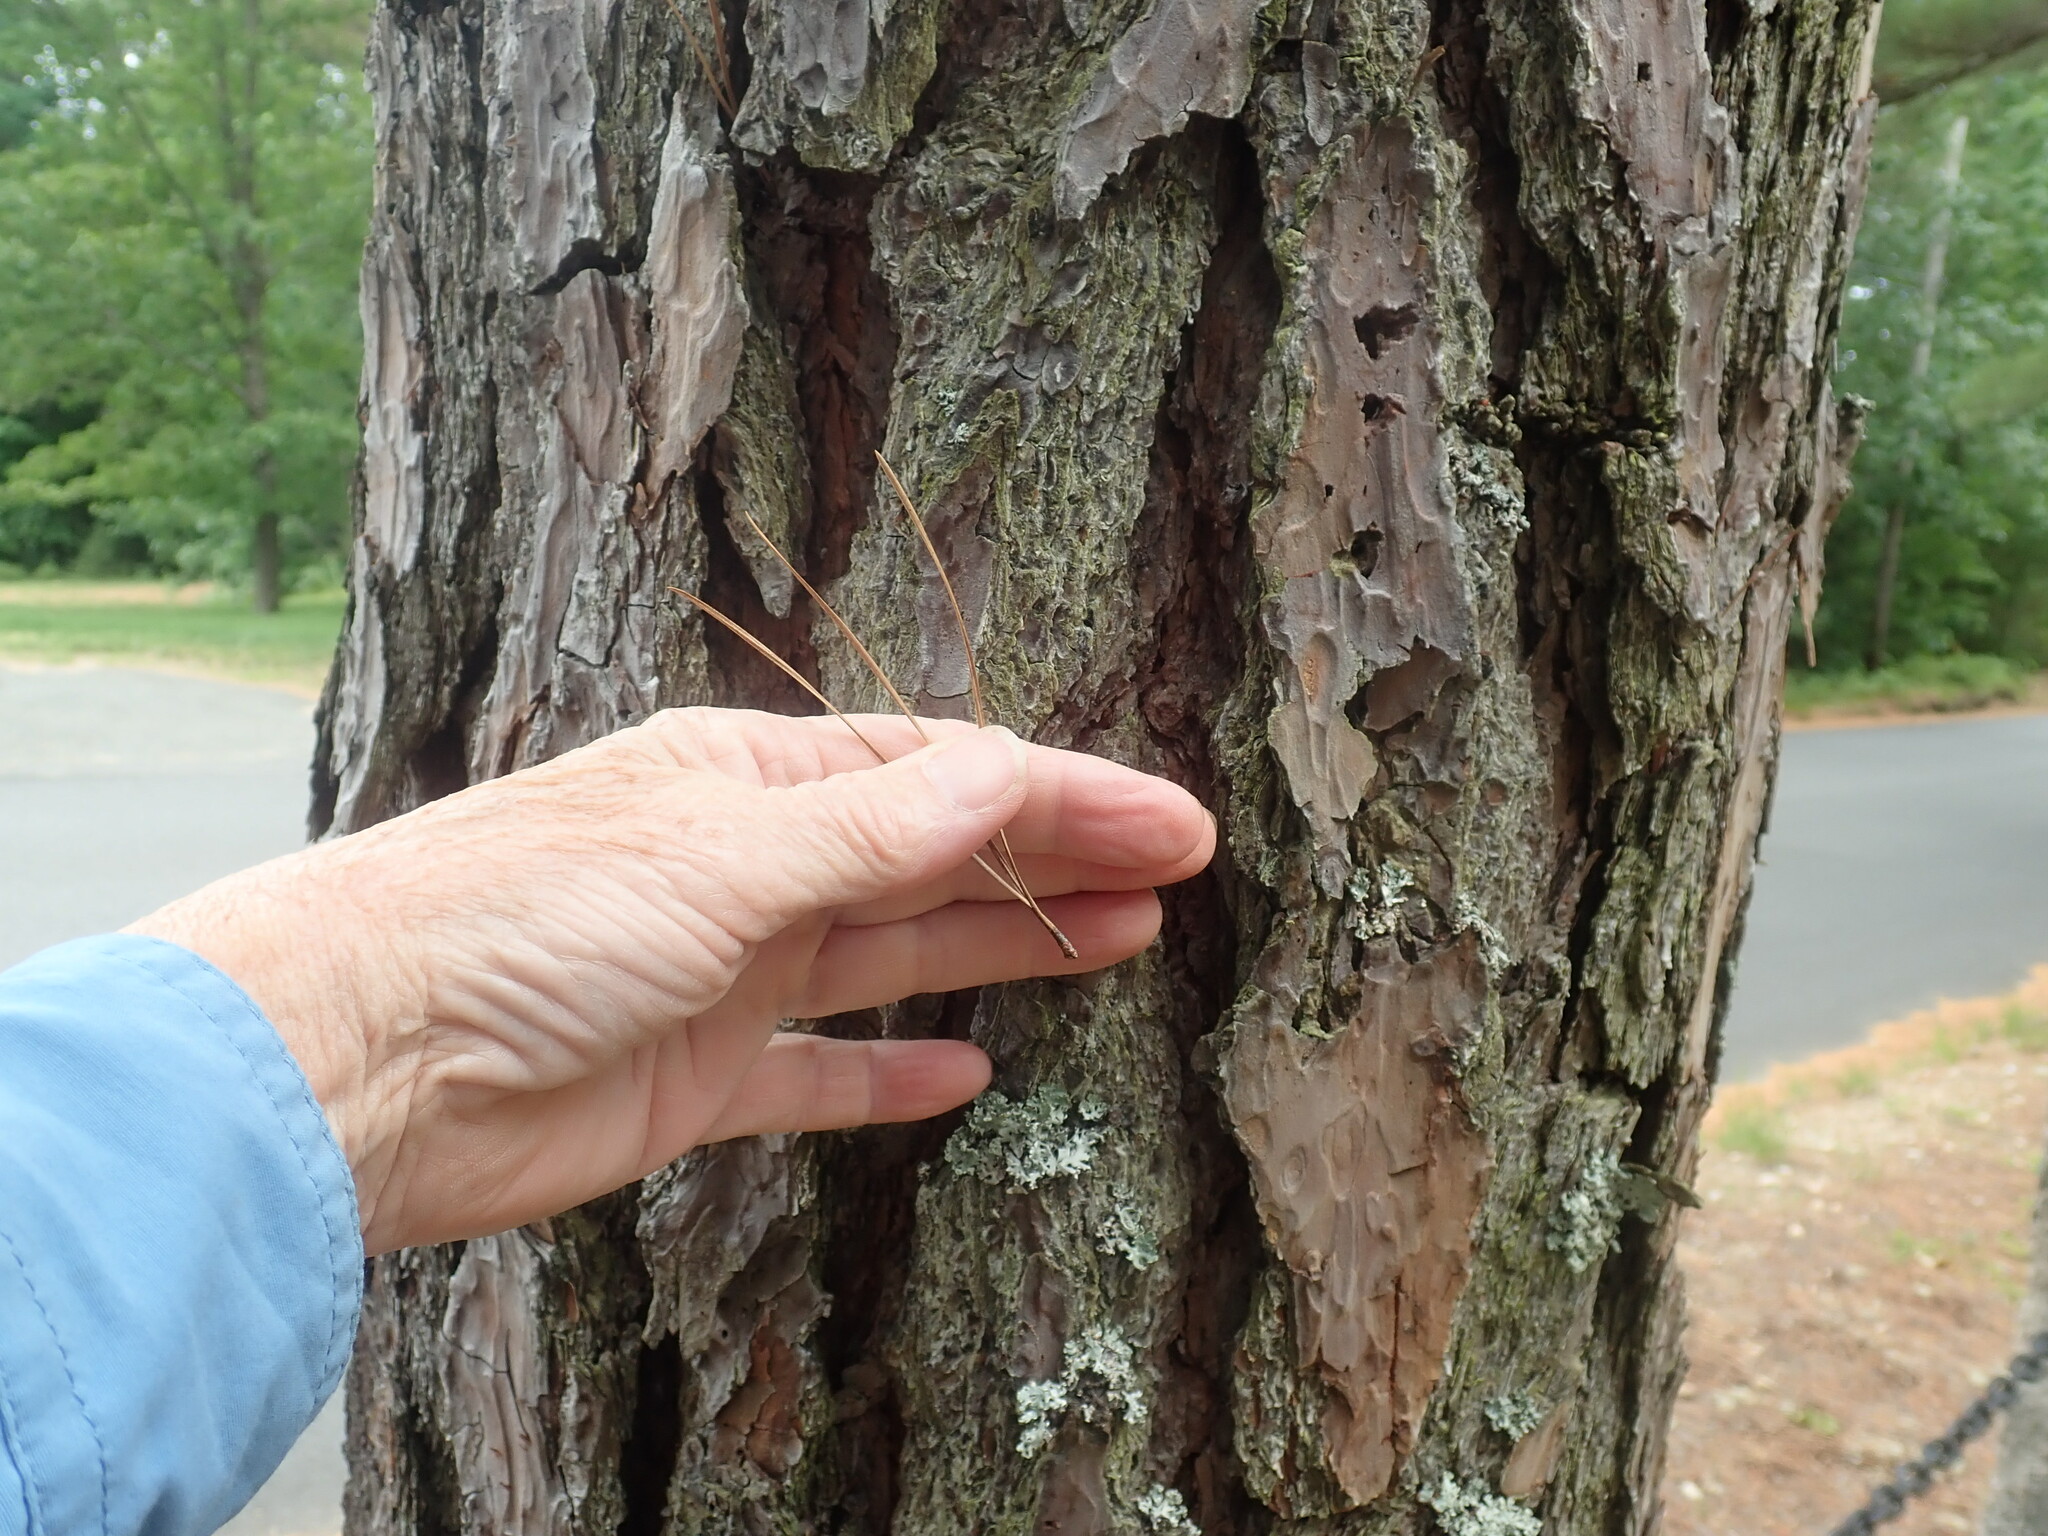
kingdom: Plantae
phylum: Tracheophyta
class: Pinopsida
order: Pinales
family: Pinaceae
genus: Pinus
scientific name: Pinus rigida
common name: Pitch pine
